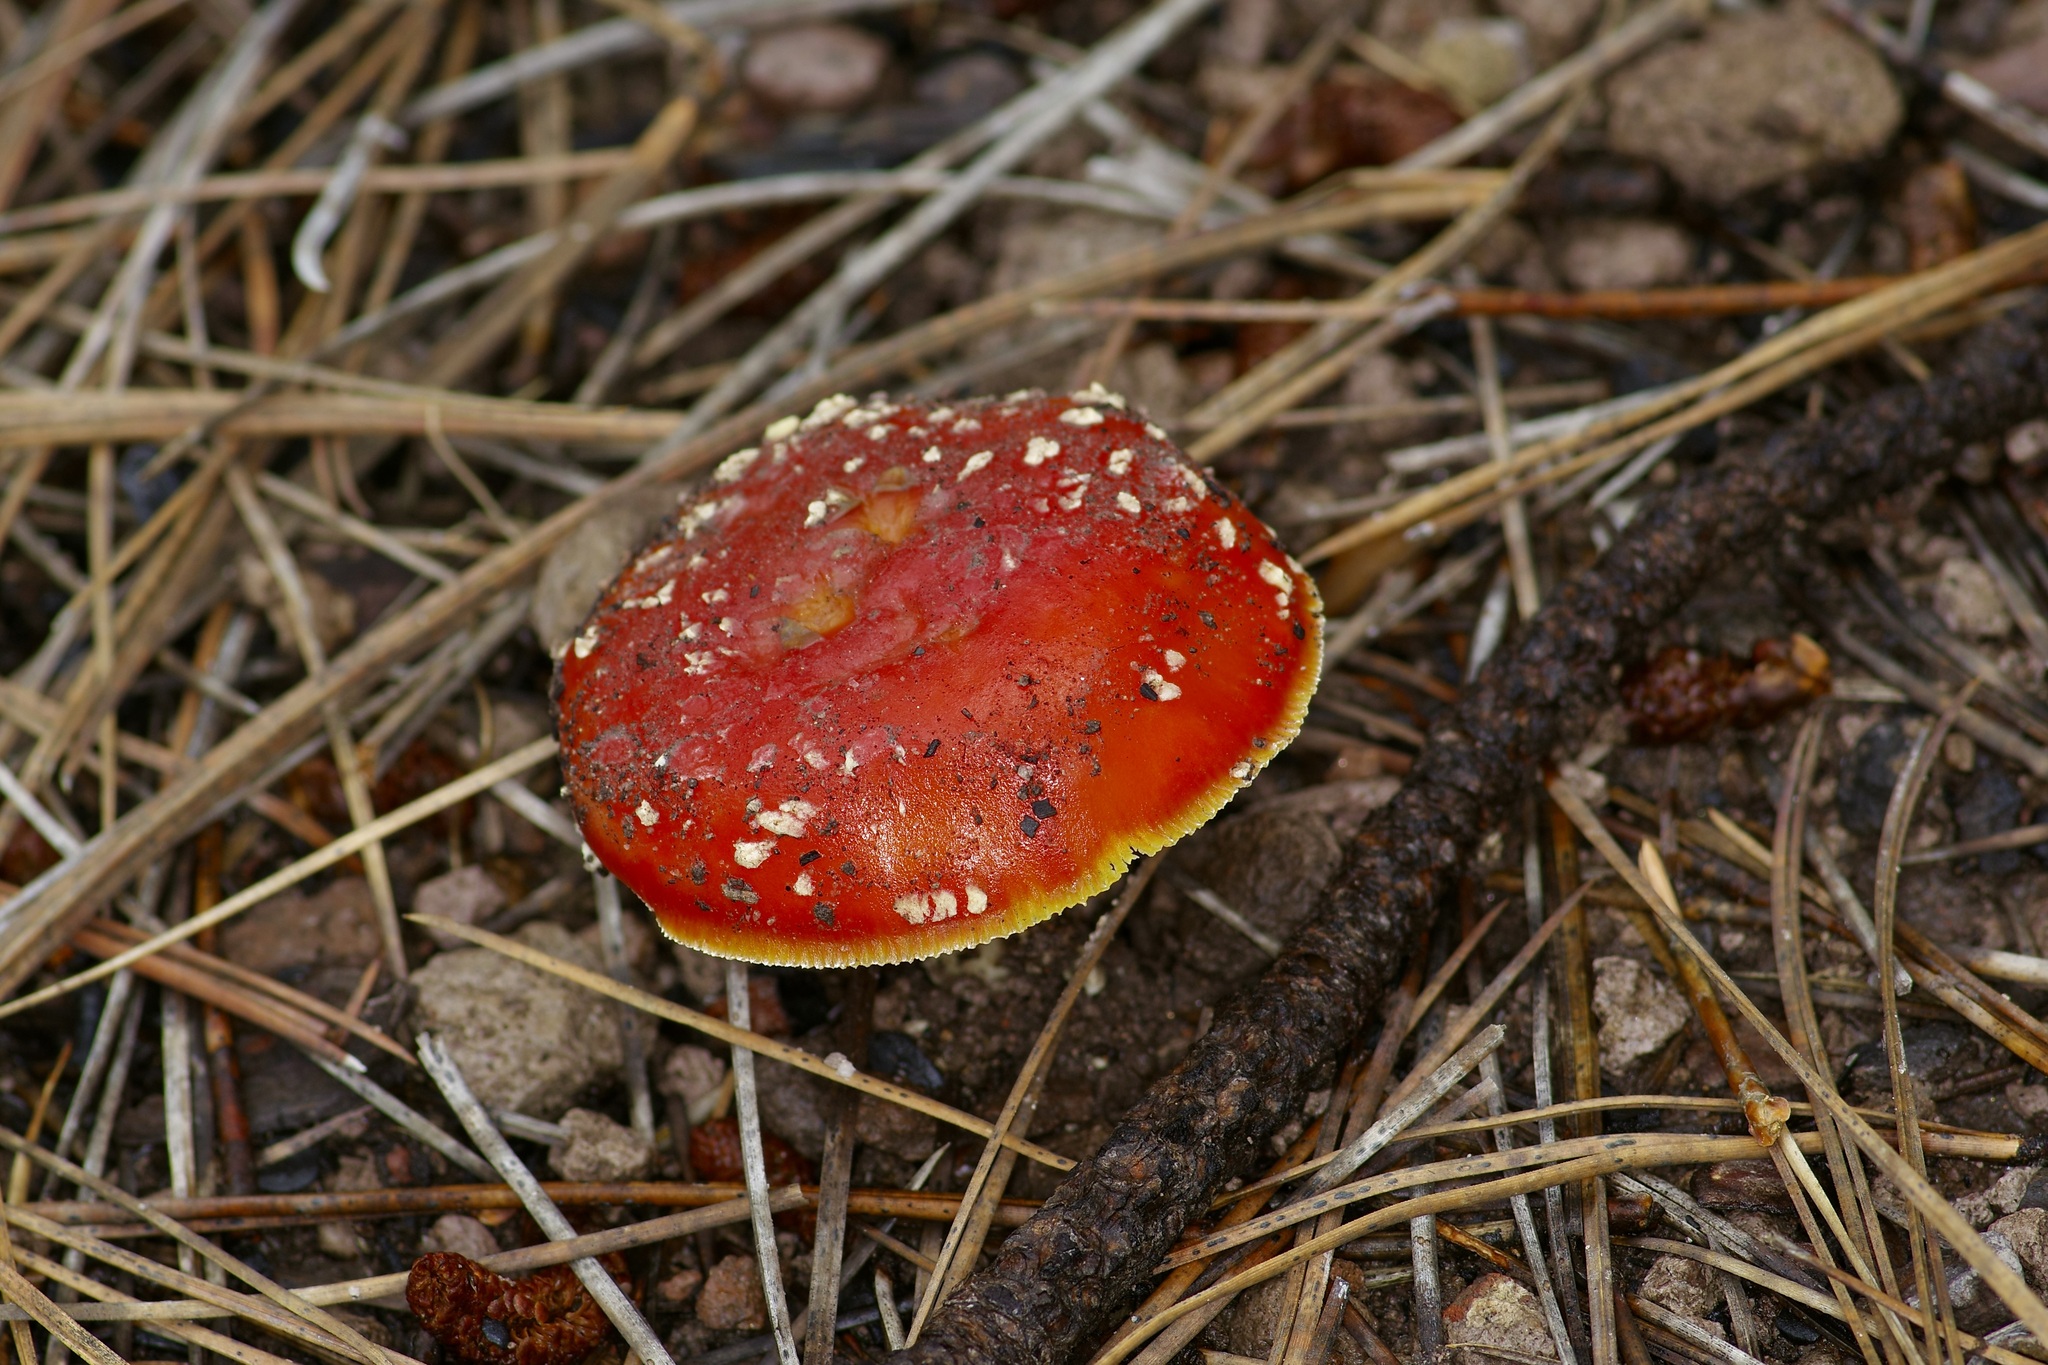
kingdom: Fungi
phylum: Basidiomycota
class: Agaricomycetes
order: Agaricales
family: Amanitaceae
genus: Amanita
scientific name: Amanita muscaria
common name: Fly agaric
